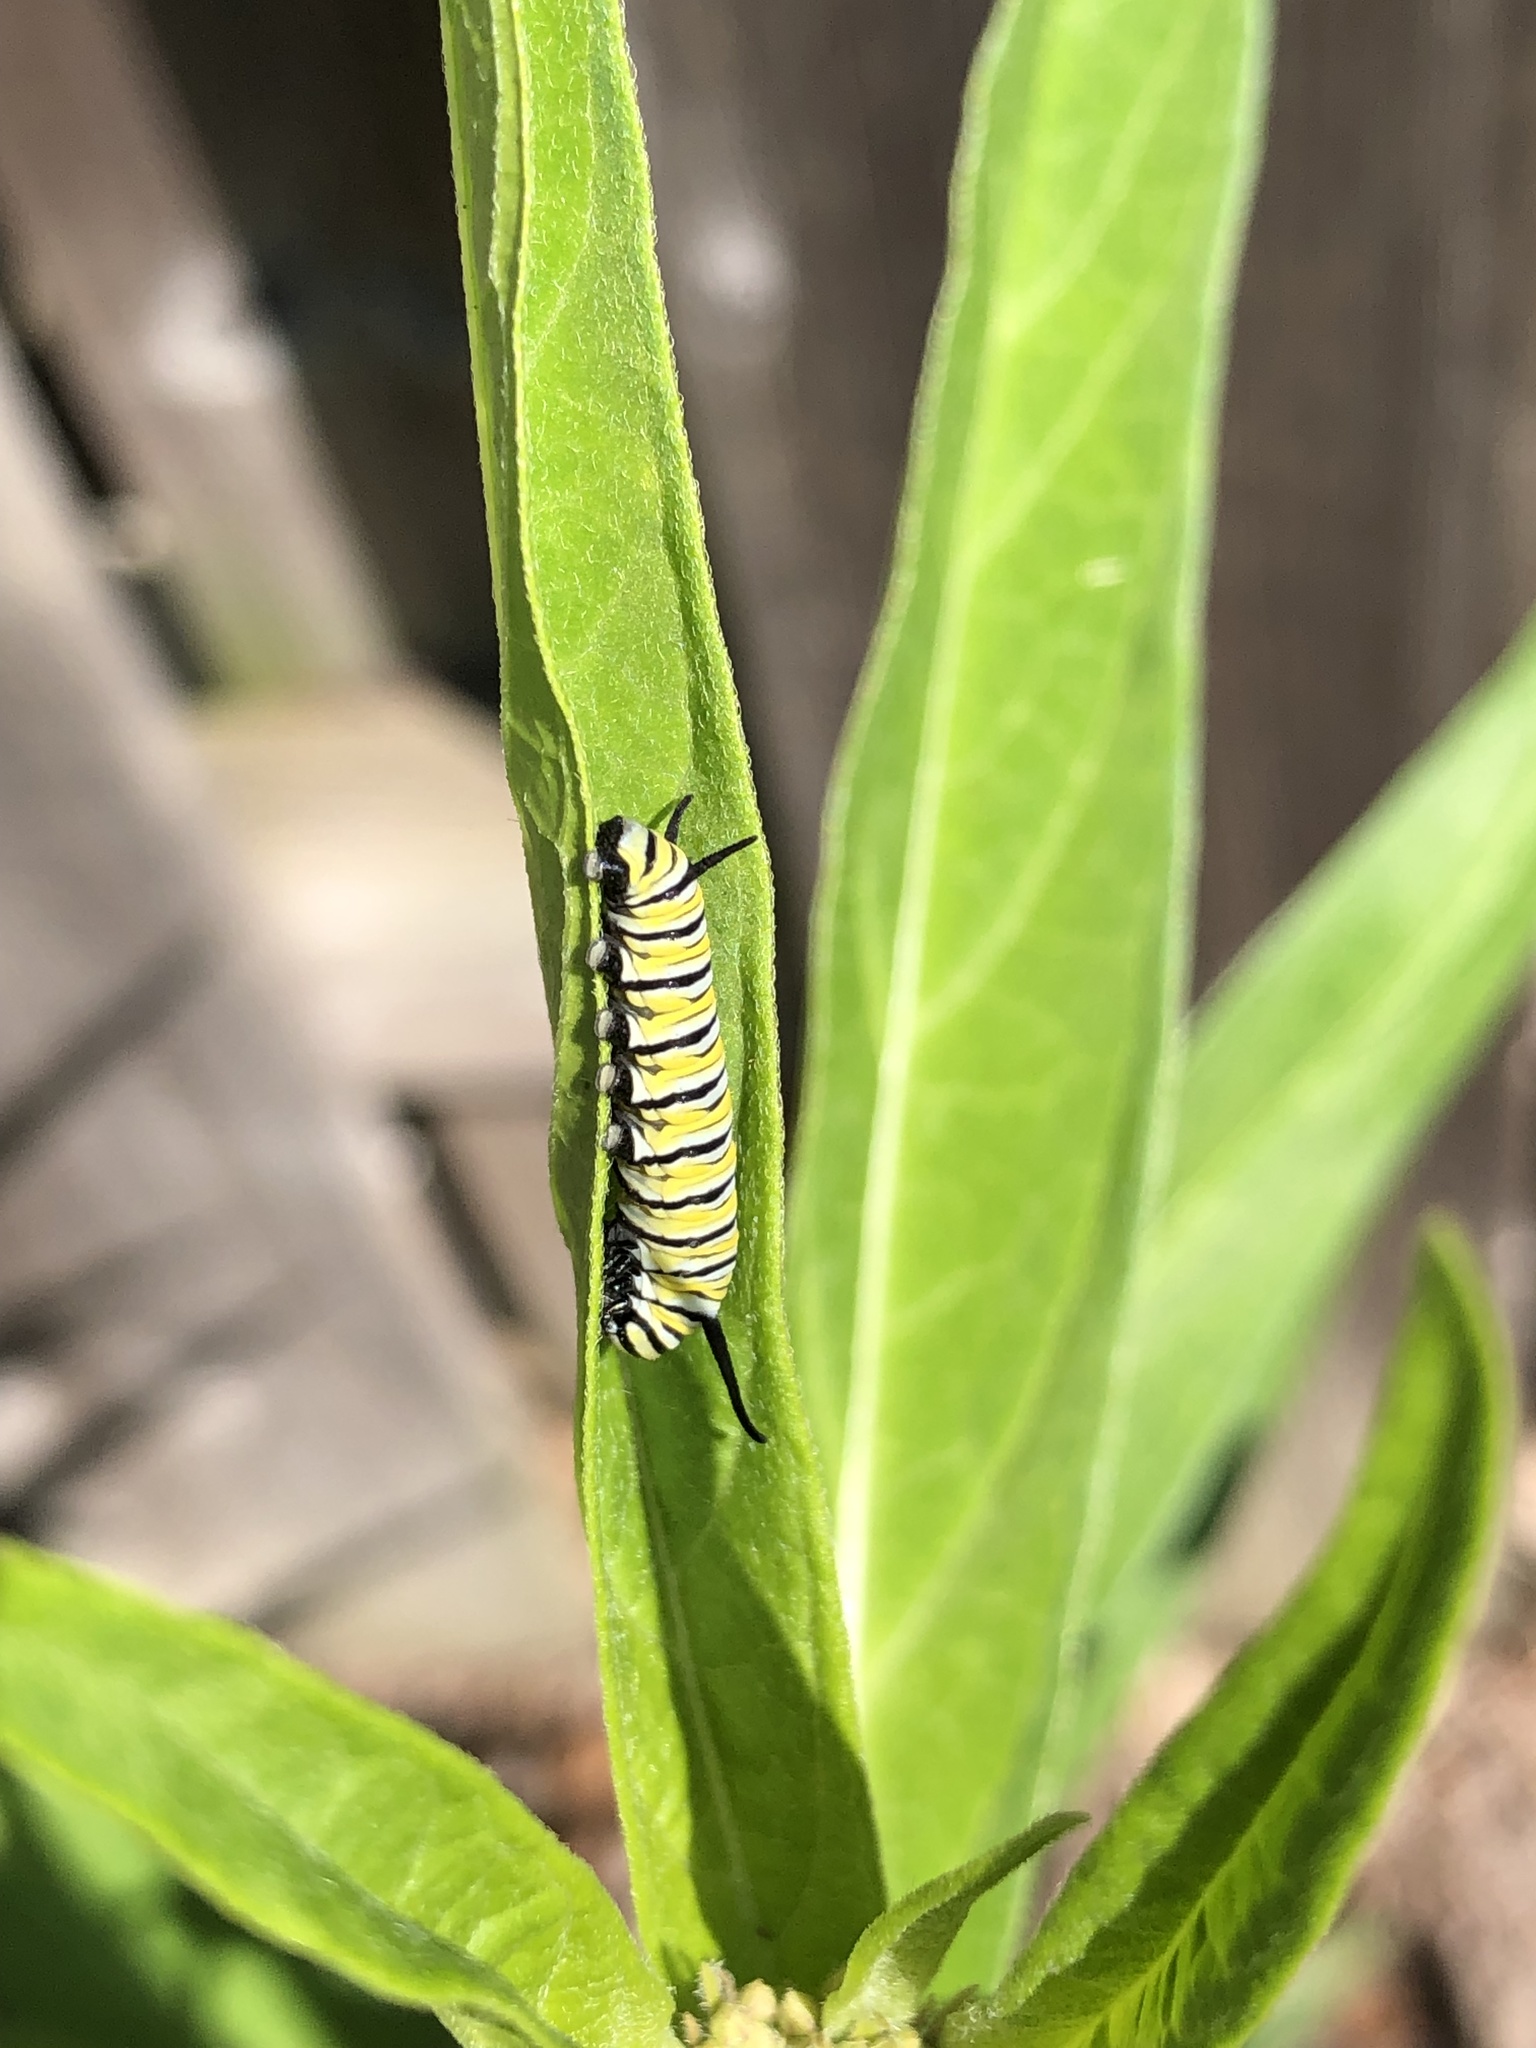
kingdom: Animalia
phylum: Arthropoda
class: Insecta
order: Lepidoptera
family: Nymphalidae
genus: Danaus
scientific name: Danaus plexippus
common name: Monarch
